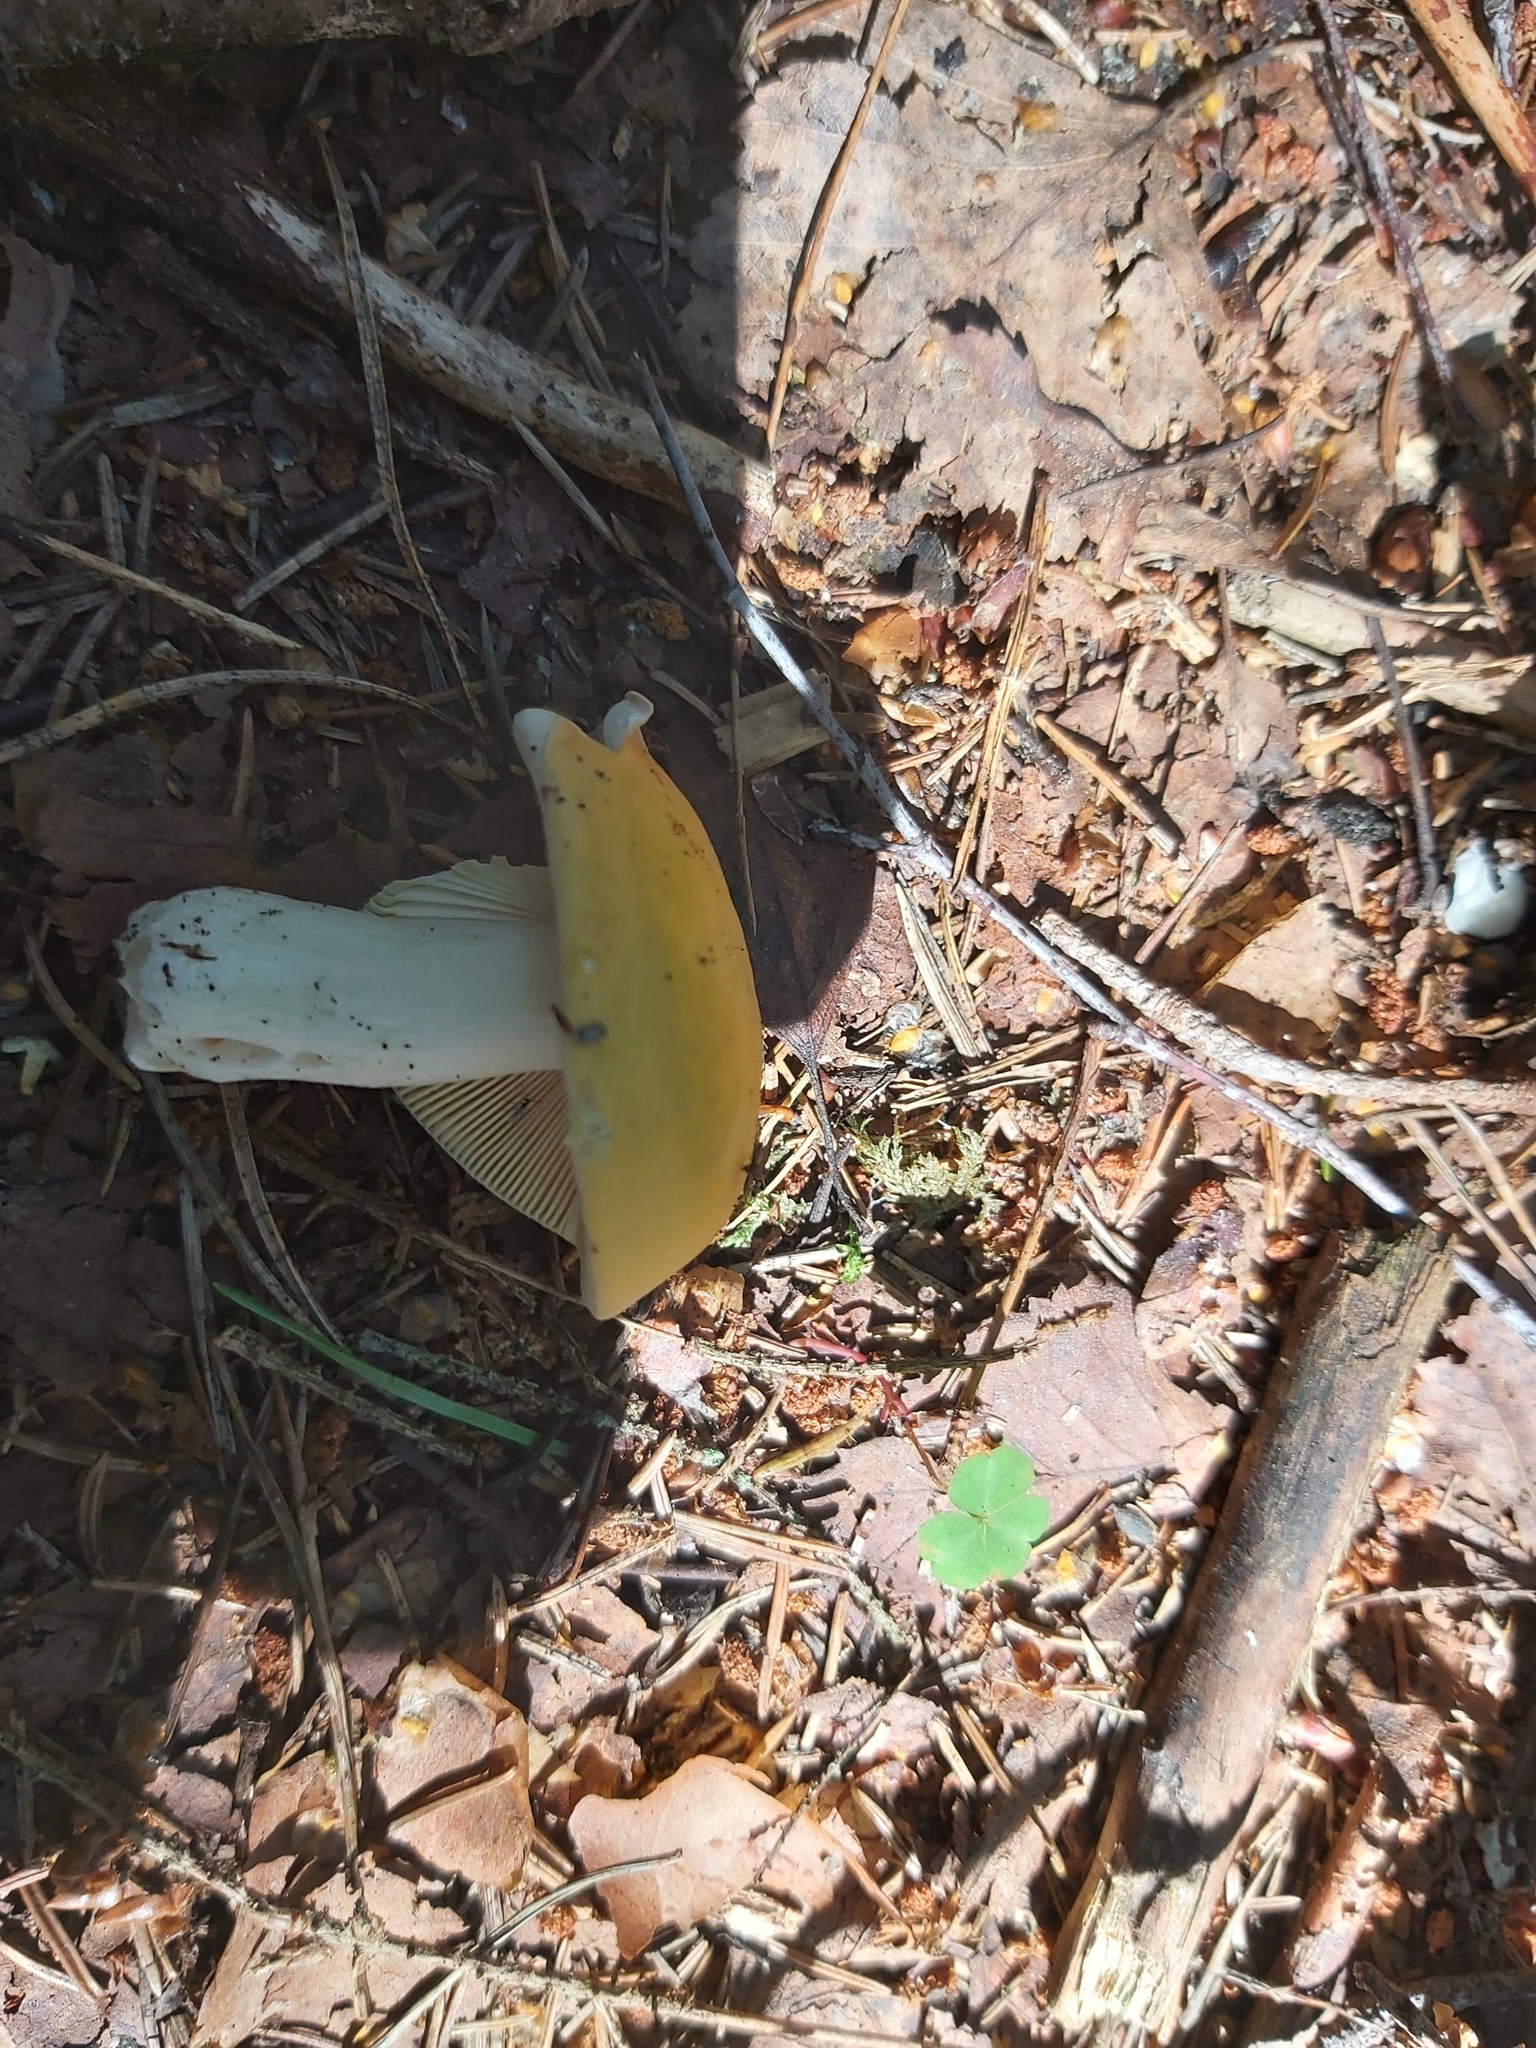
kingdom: Fungi
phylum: Basidiomycota
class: Agaricomycetes
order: Russulales
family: Russulaceae
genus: Russula
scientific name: Russula claroflava
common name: The yellow swamp brittlegill
